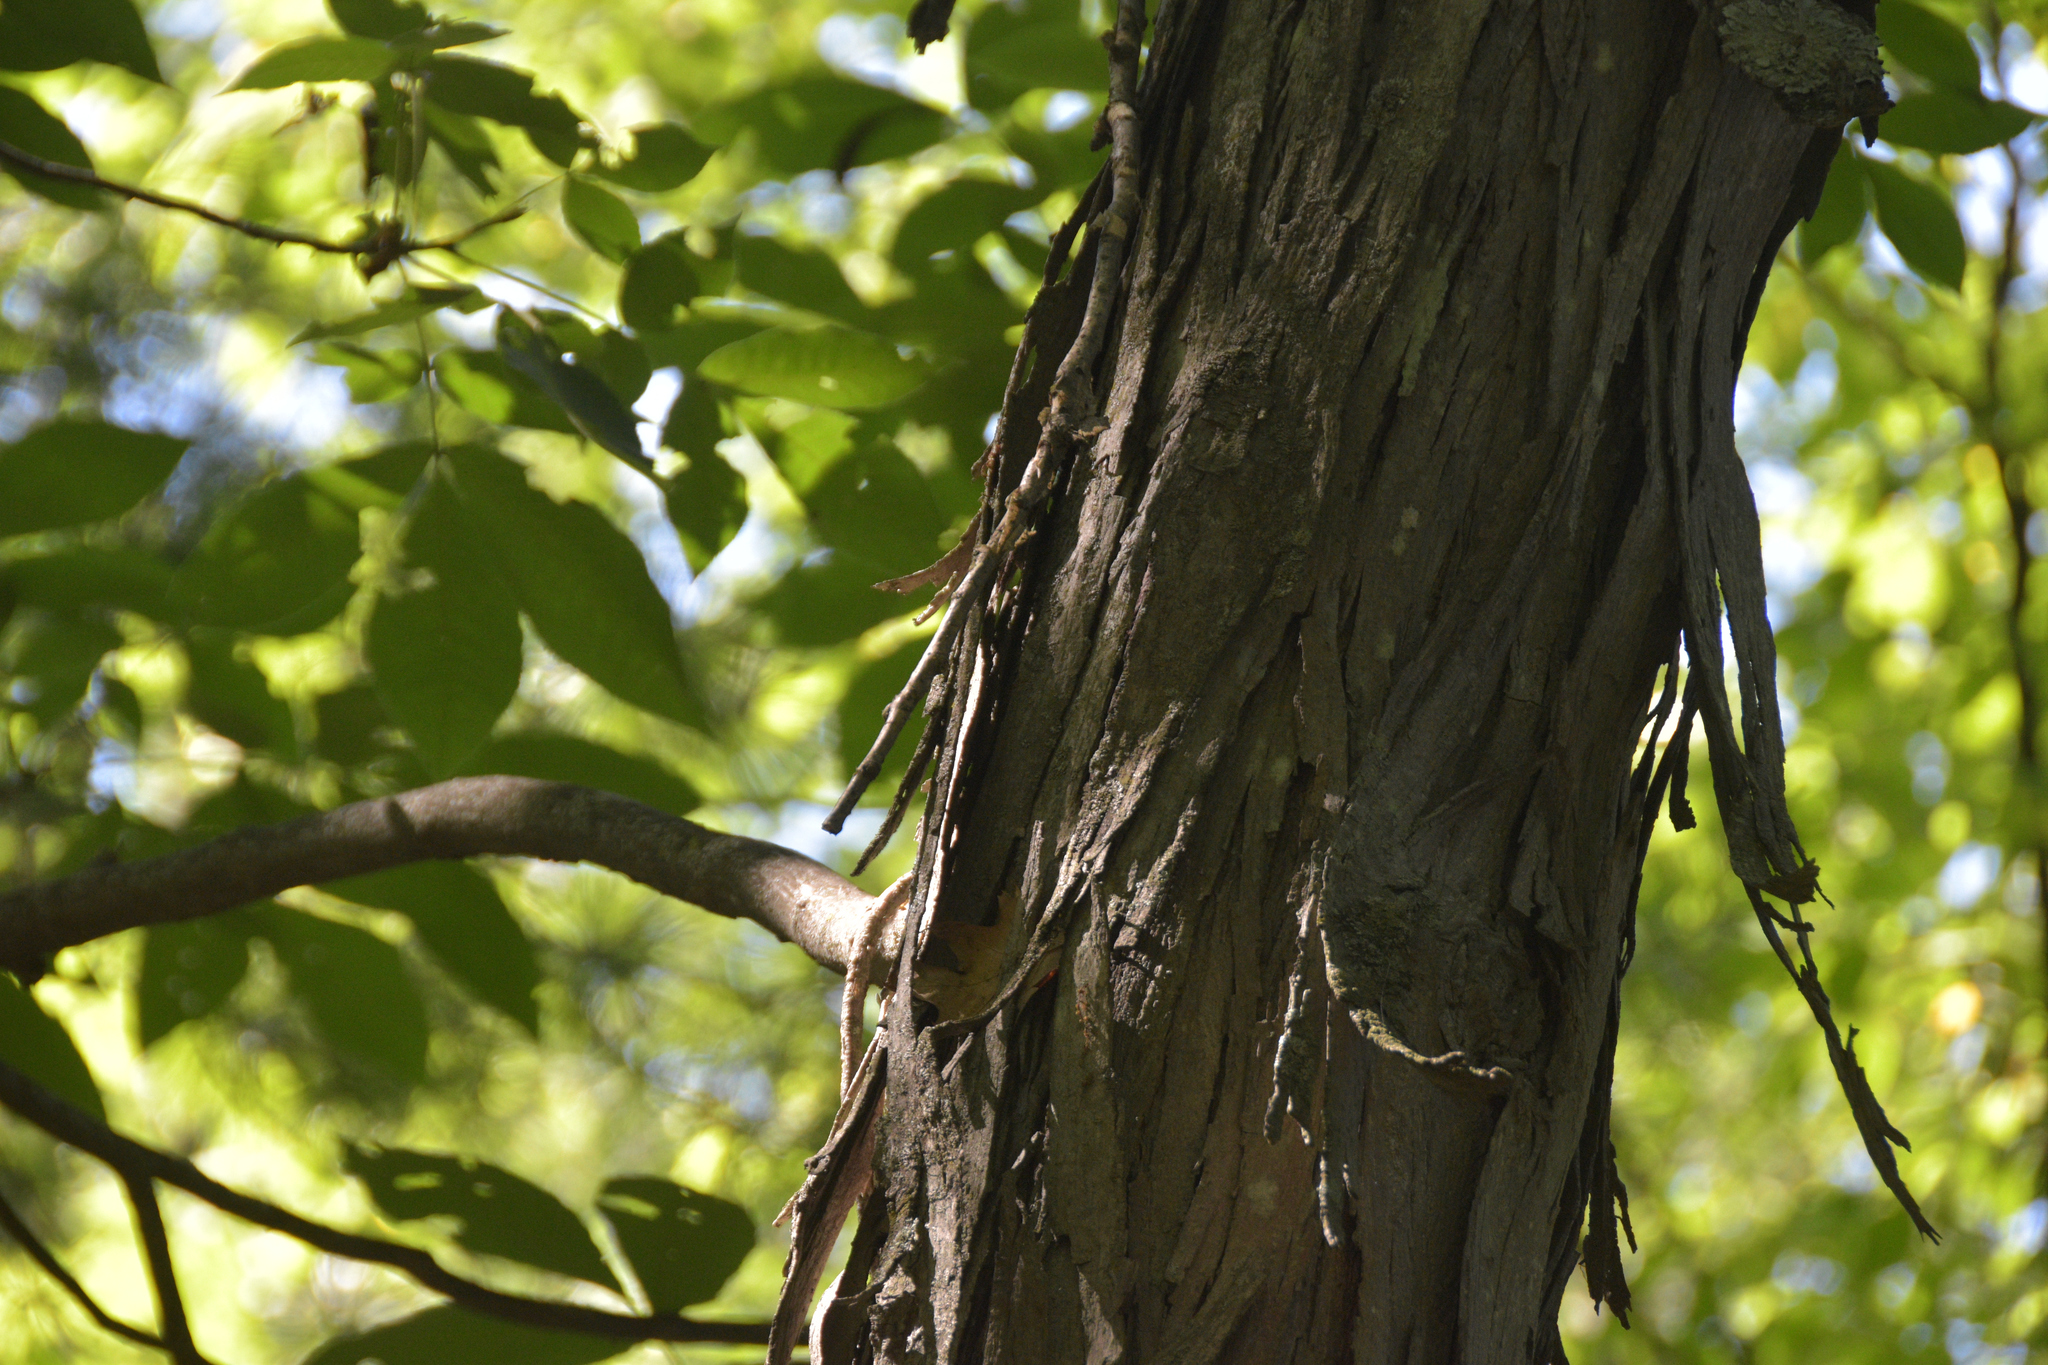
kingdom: Plantae
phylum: Tracheophyta
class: Magnoliopsida
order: Fagales
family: Juglandaceae
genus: Carya
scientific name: Carya ovata
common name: Shagbark hickory
